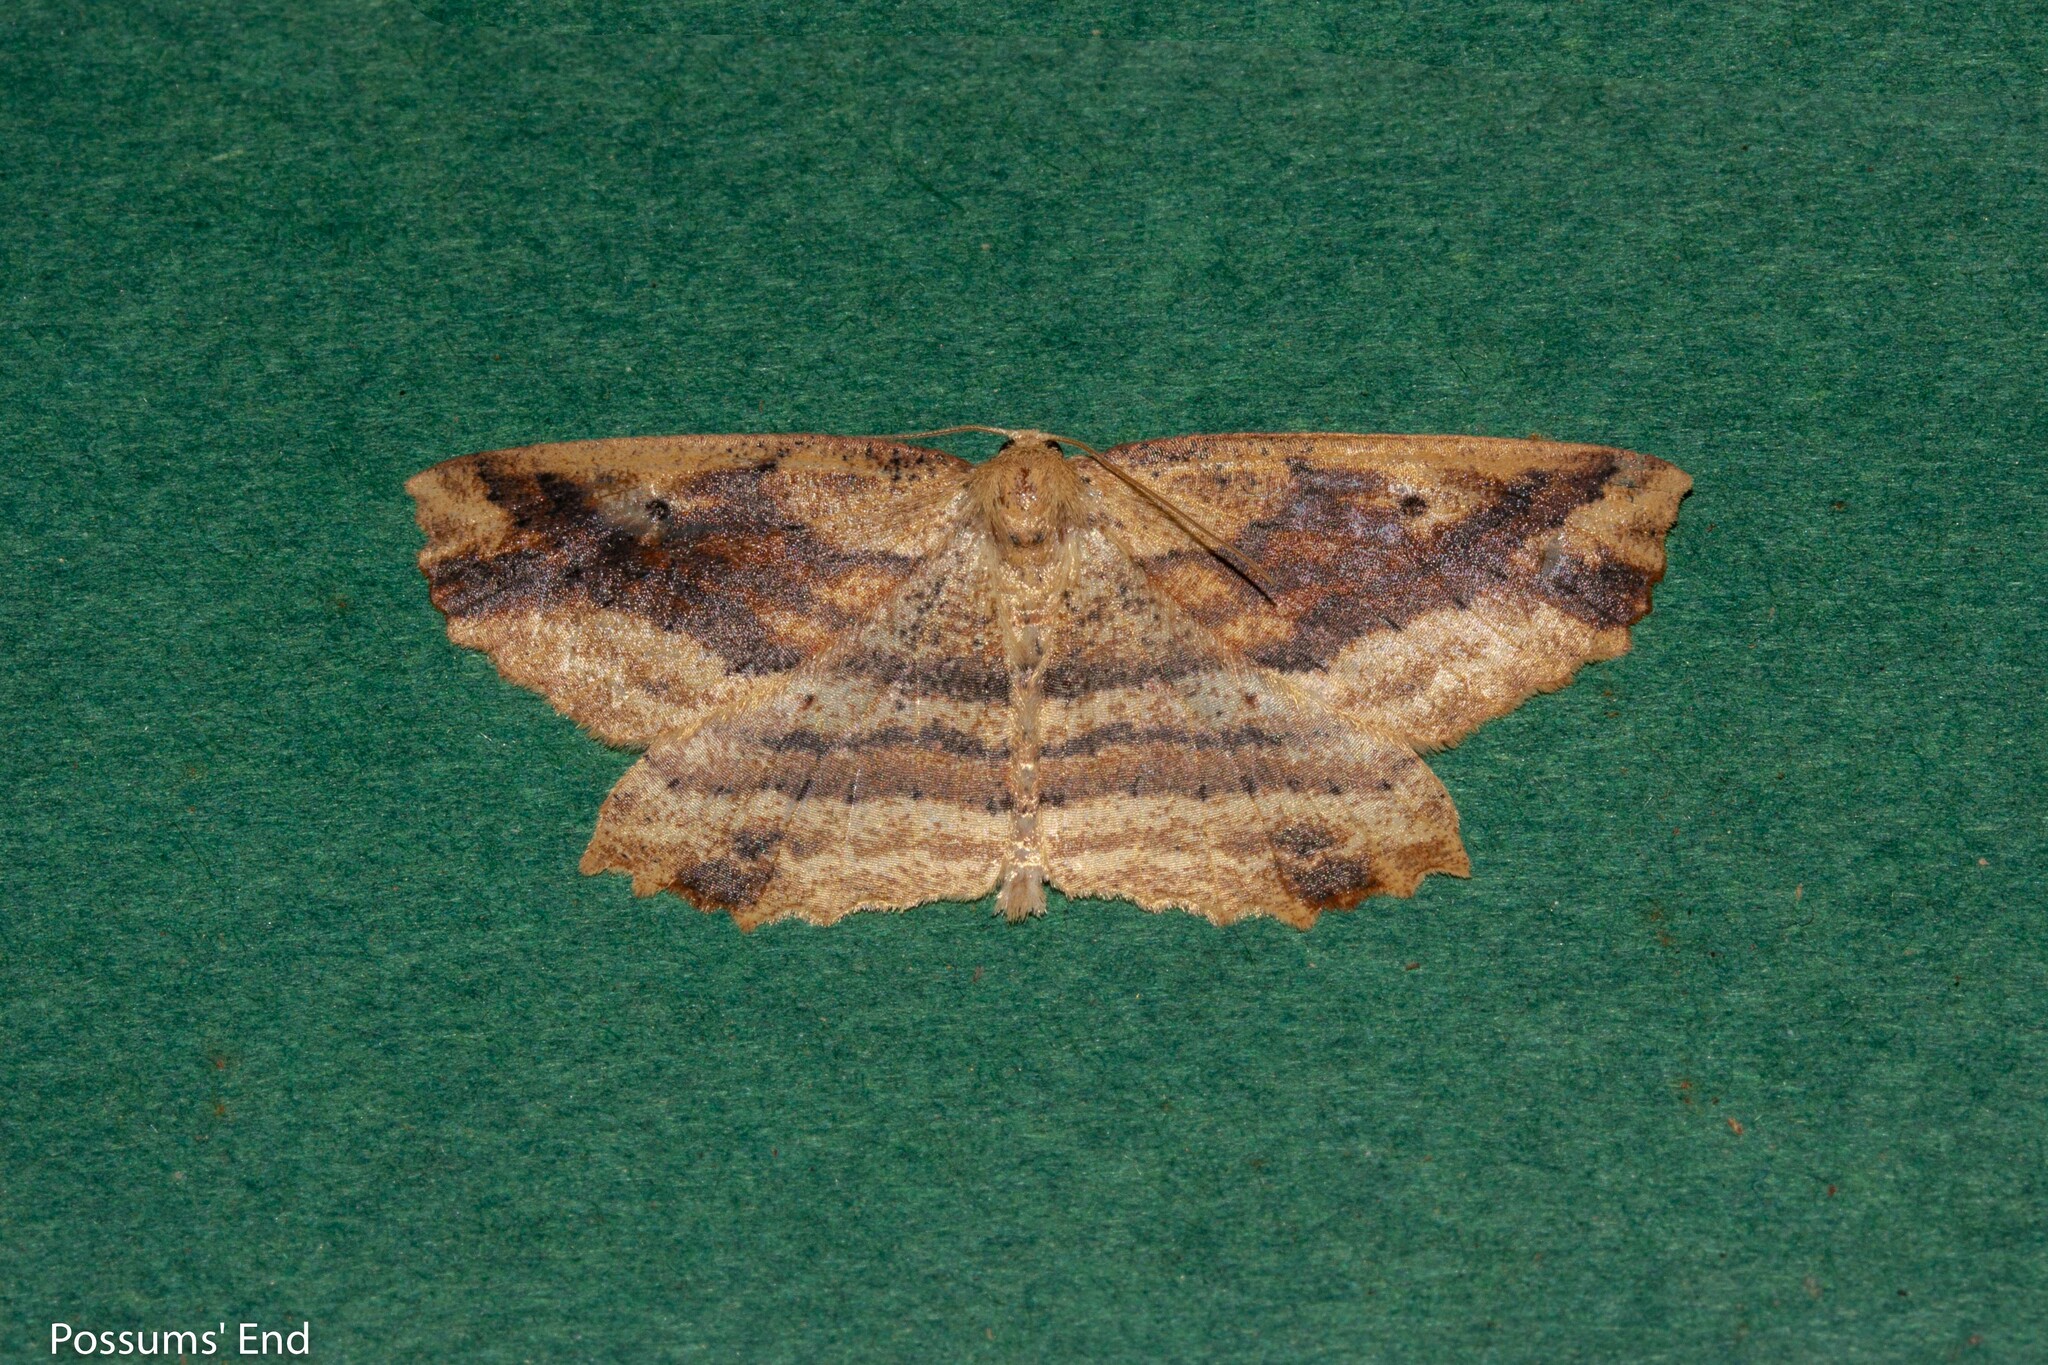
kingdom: Animalia
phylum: Arthropoda
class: Insecta
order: Lepidoptera
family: Geometridae
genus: Xyridacma
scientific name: Xyridacma veronicae
